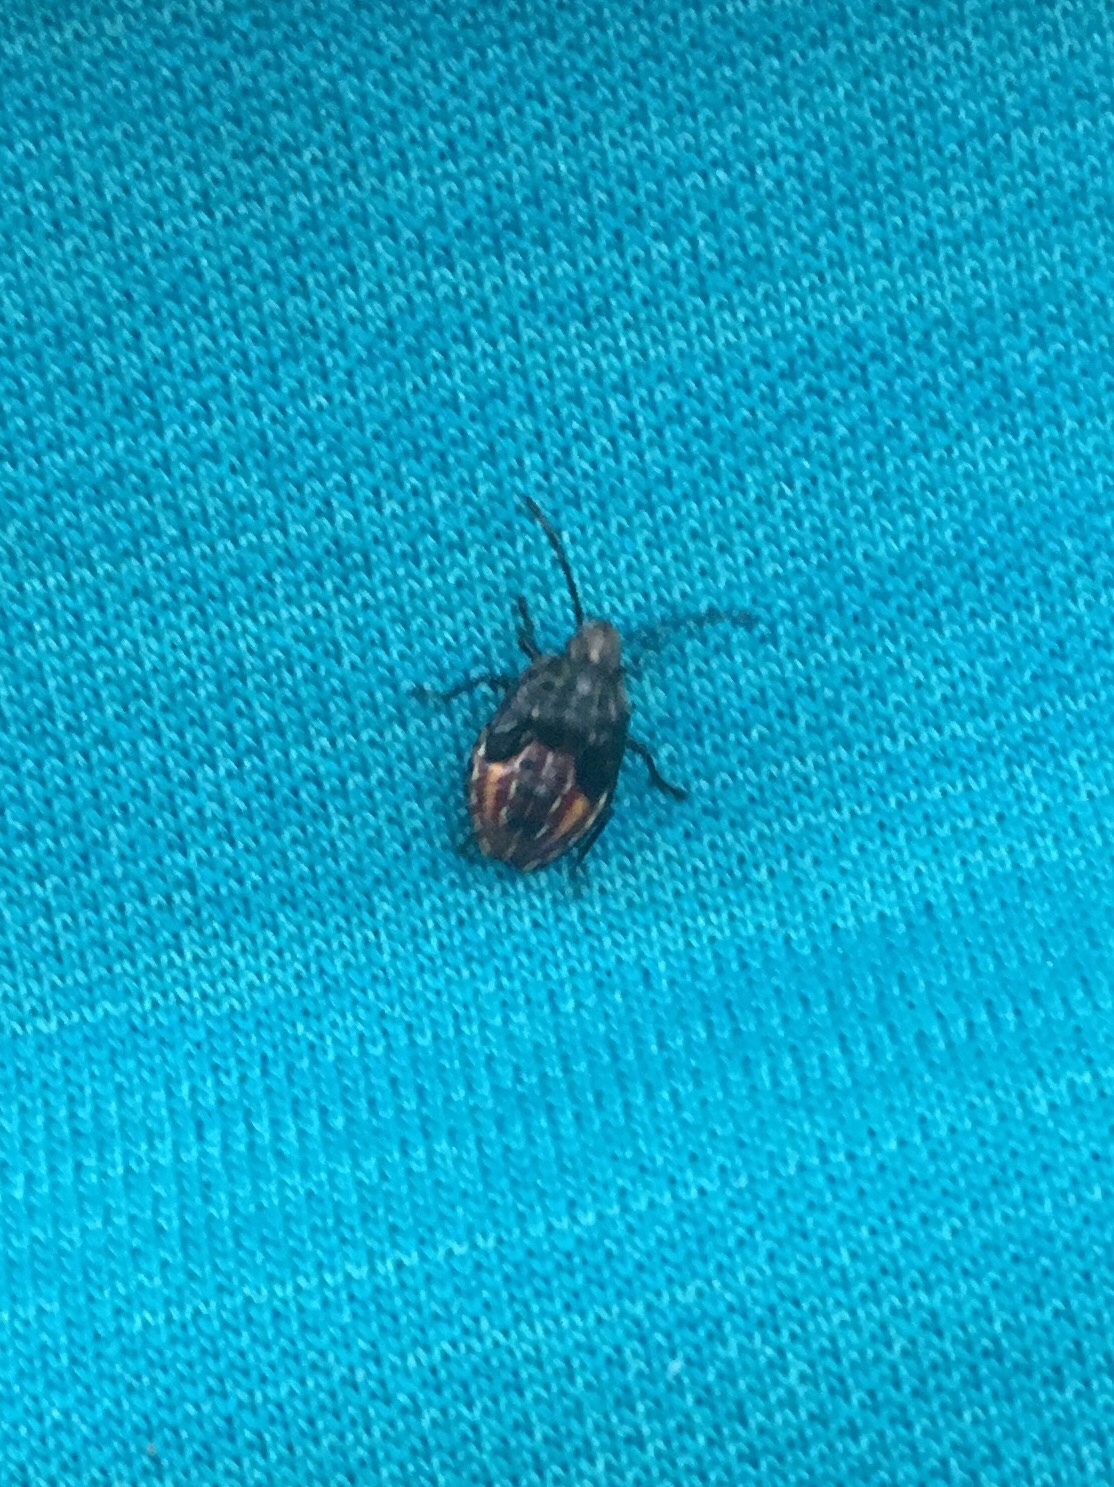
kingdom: Animalia
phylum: Arthropoda
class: Insecta
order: Hemiptera
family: Acanthosomatidae
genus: Elasmucha
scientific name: Elasmucha lateralis
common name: Shield bug
